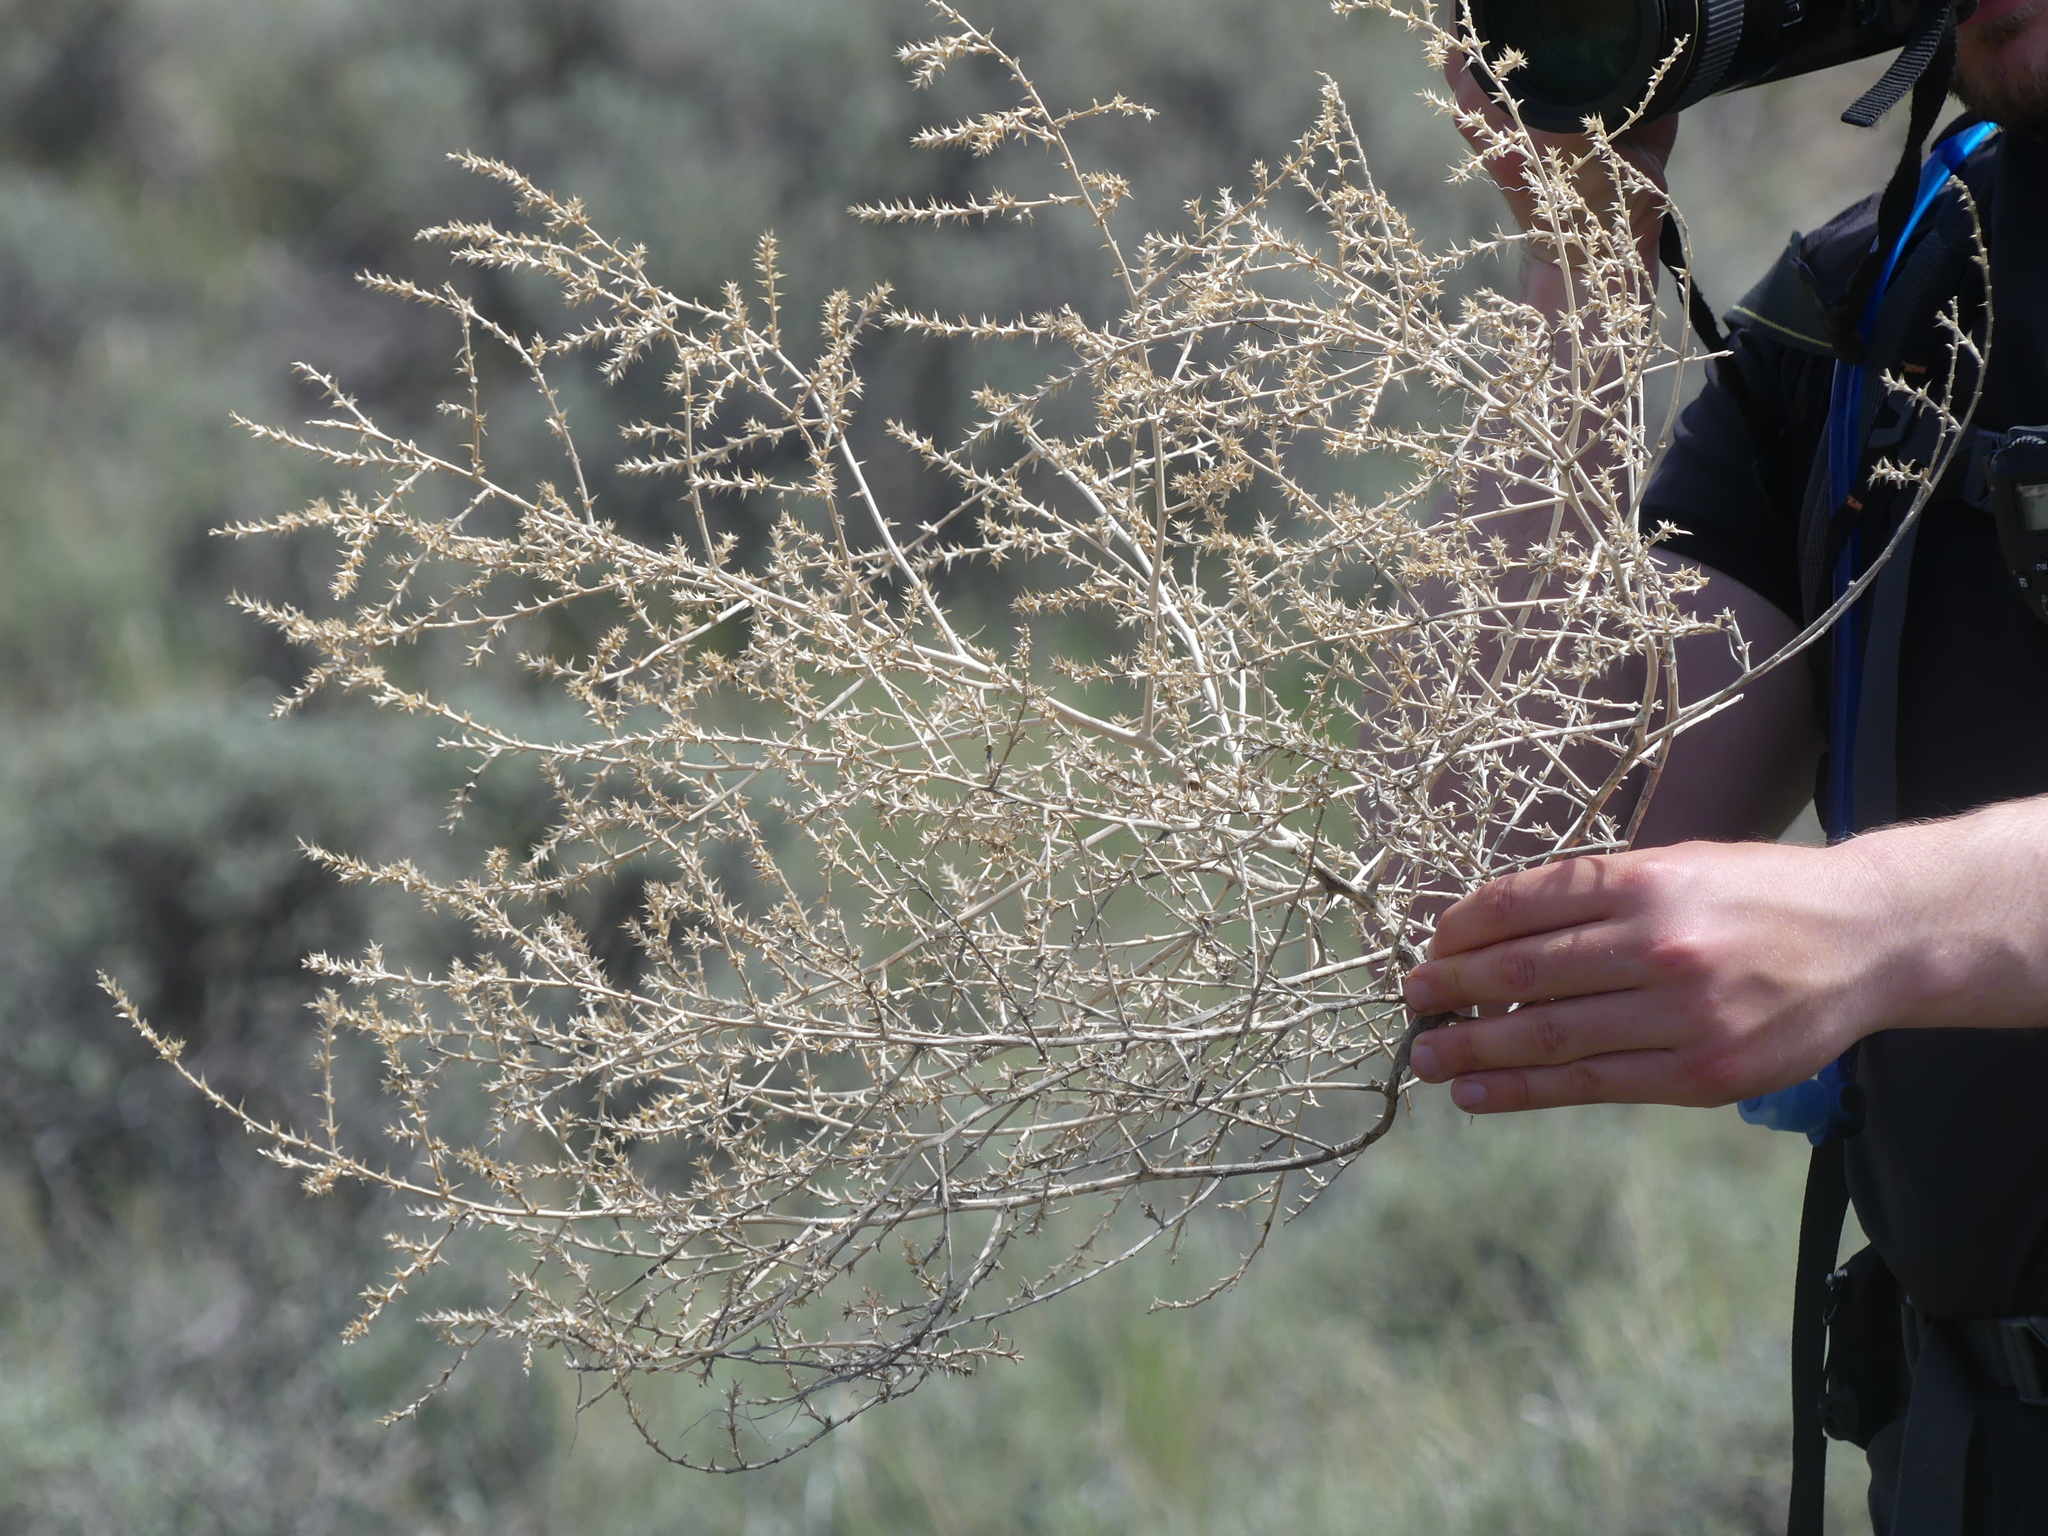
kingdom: Plantae
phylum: Tracheophyta
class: Magnoliopsida
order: Caryophyllales
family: Amaranthaceae
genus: Salsola
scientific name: Salsola tragus
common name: Prickly russian thistle
